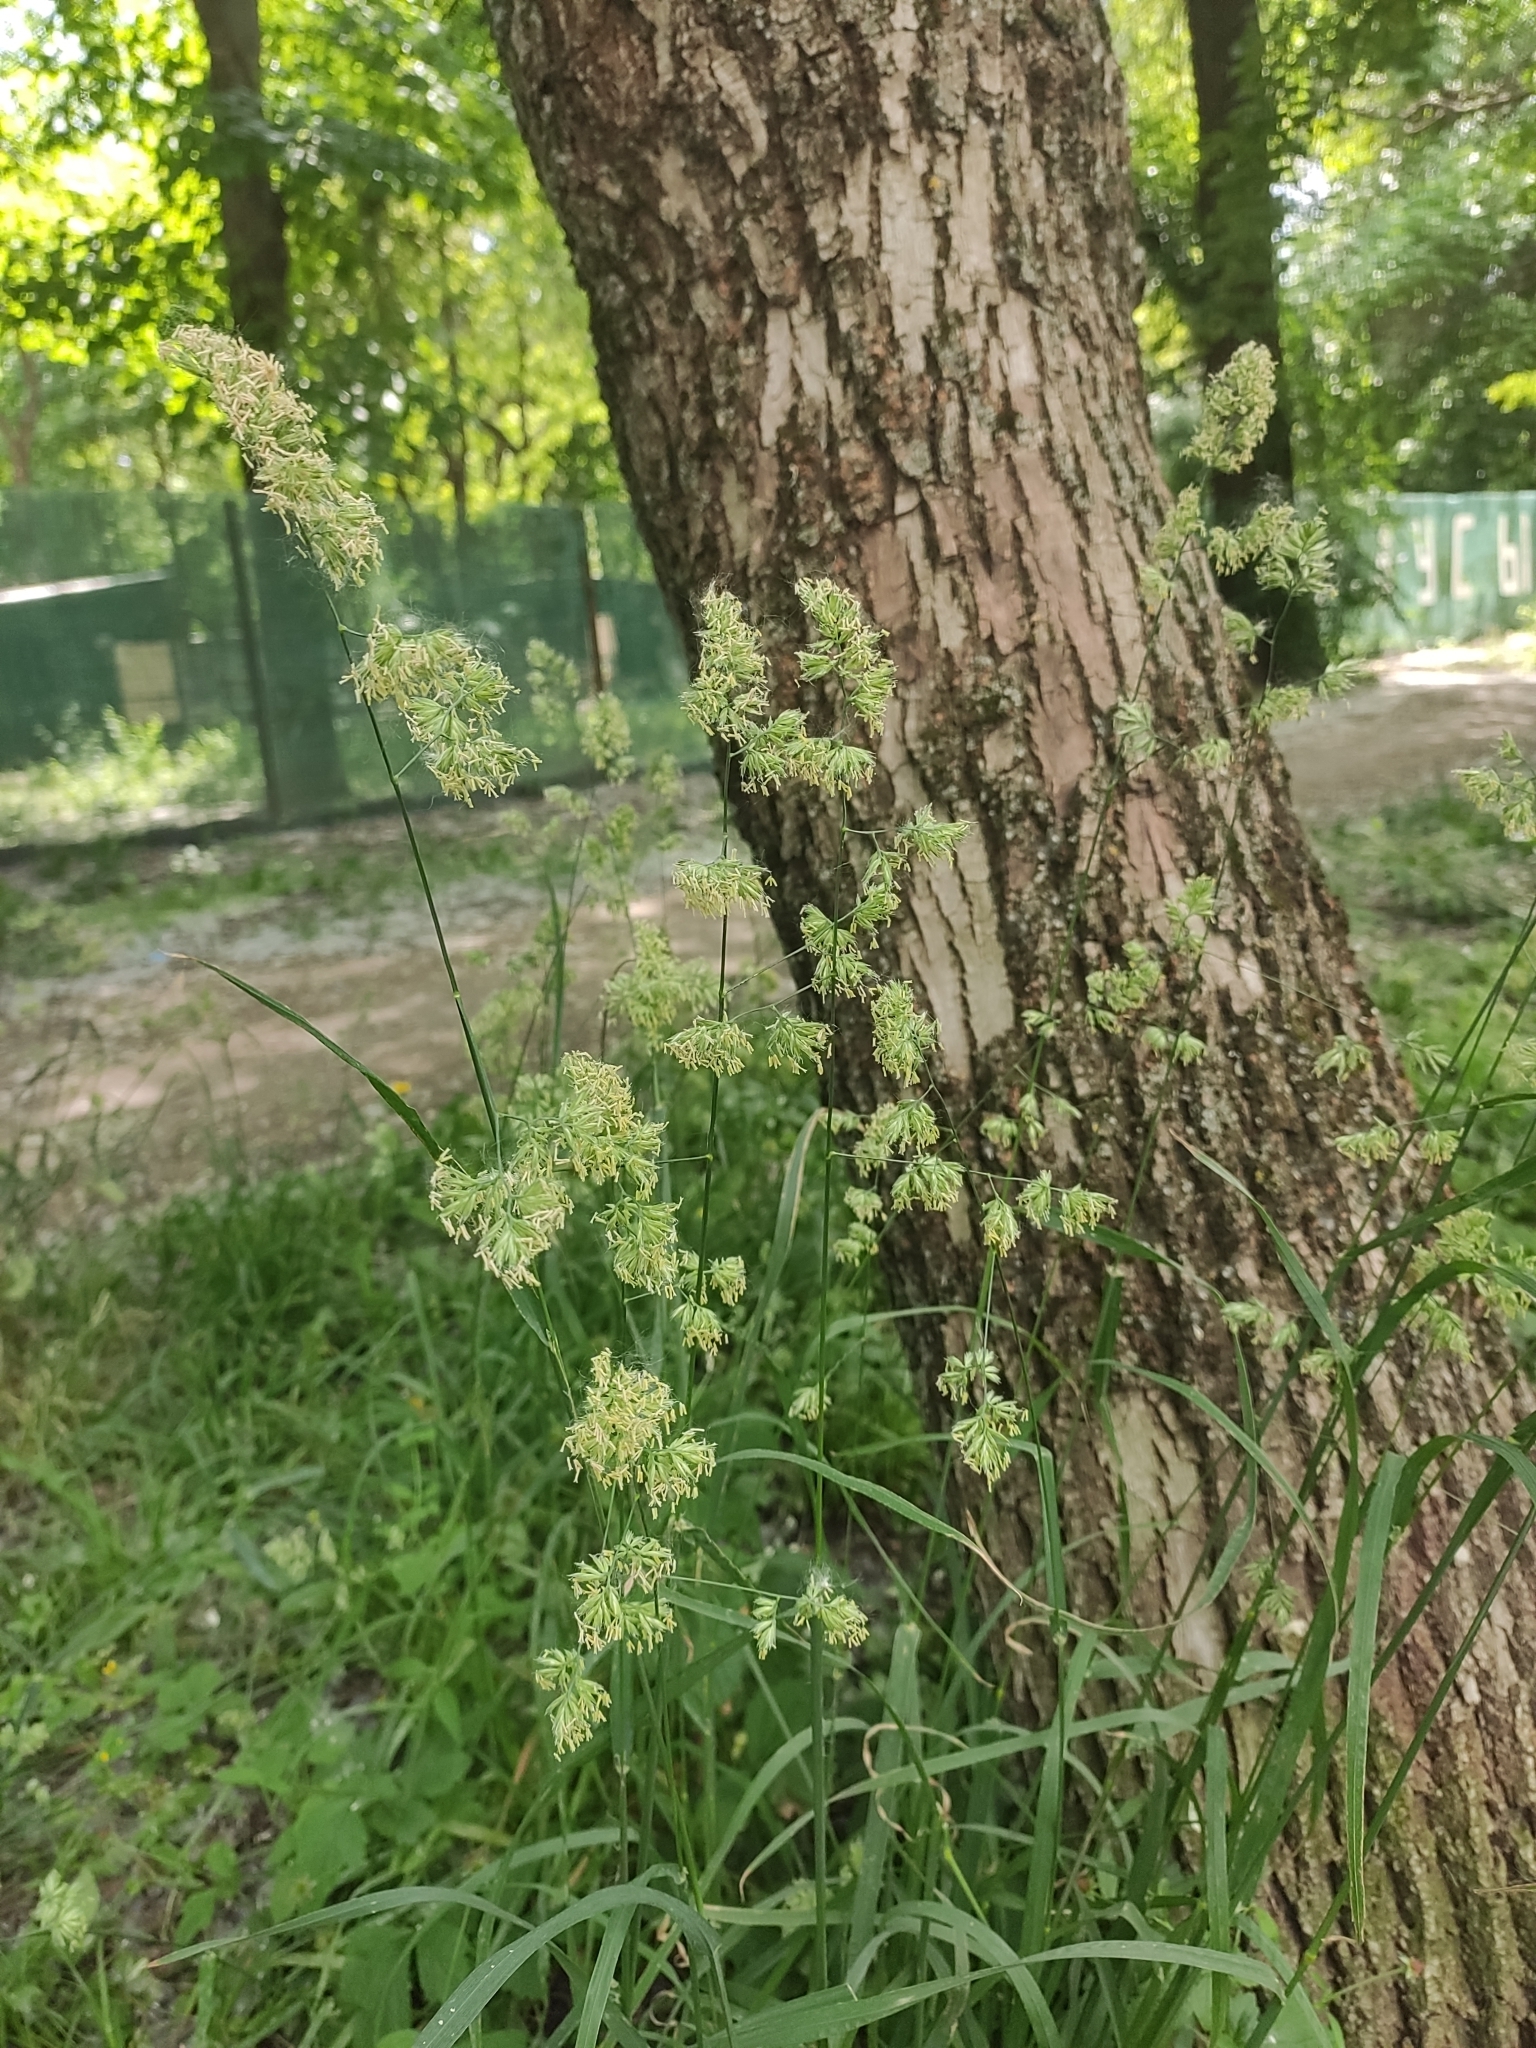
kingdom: Plantae
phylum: Tracheophyta
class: Liliopsida
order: Poales
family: Poaceae
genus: Dactylis
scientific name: Dactylis glomerata
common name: Orchardgrass
